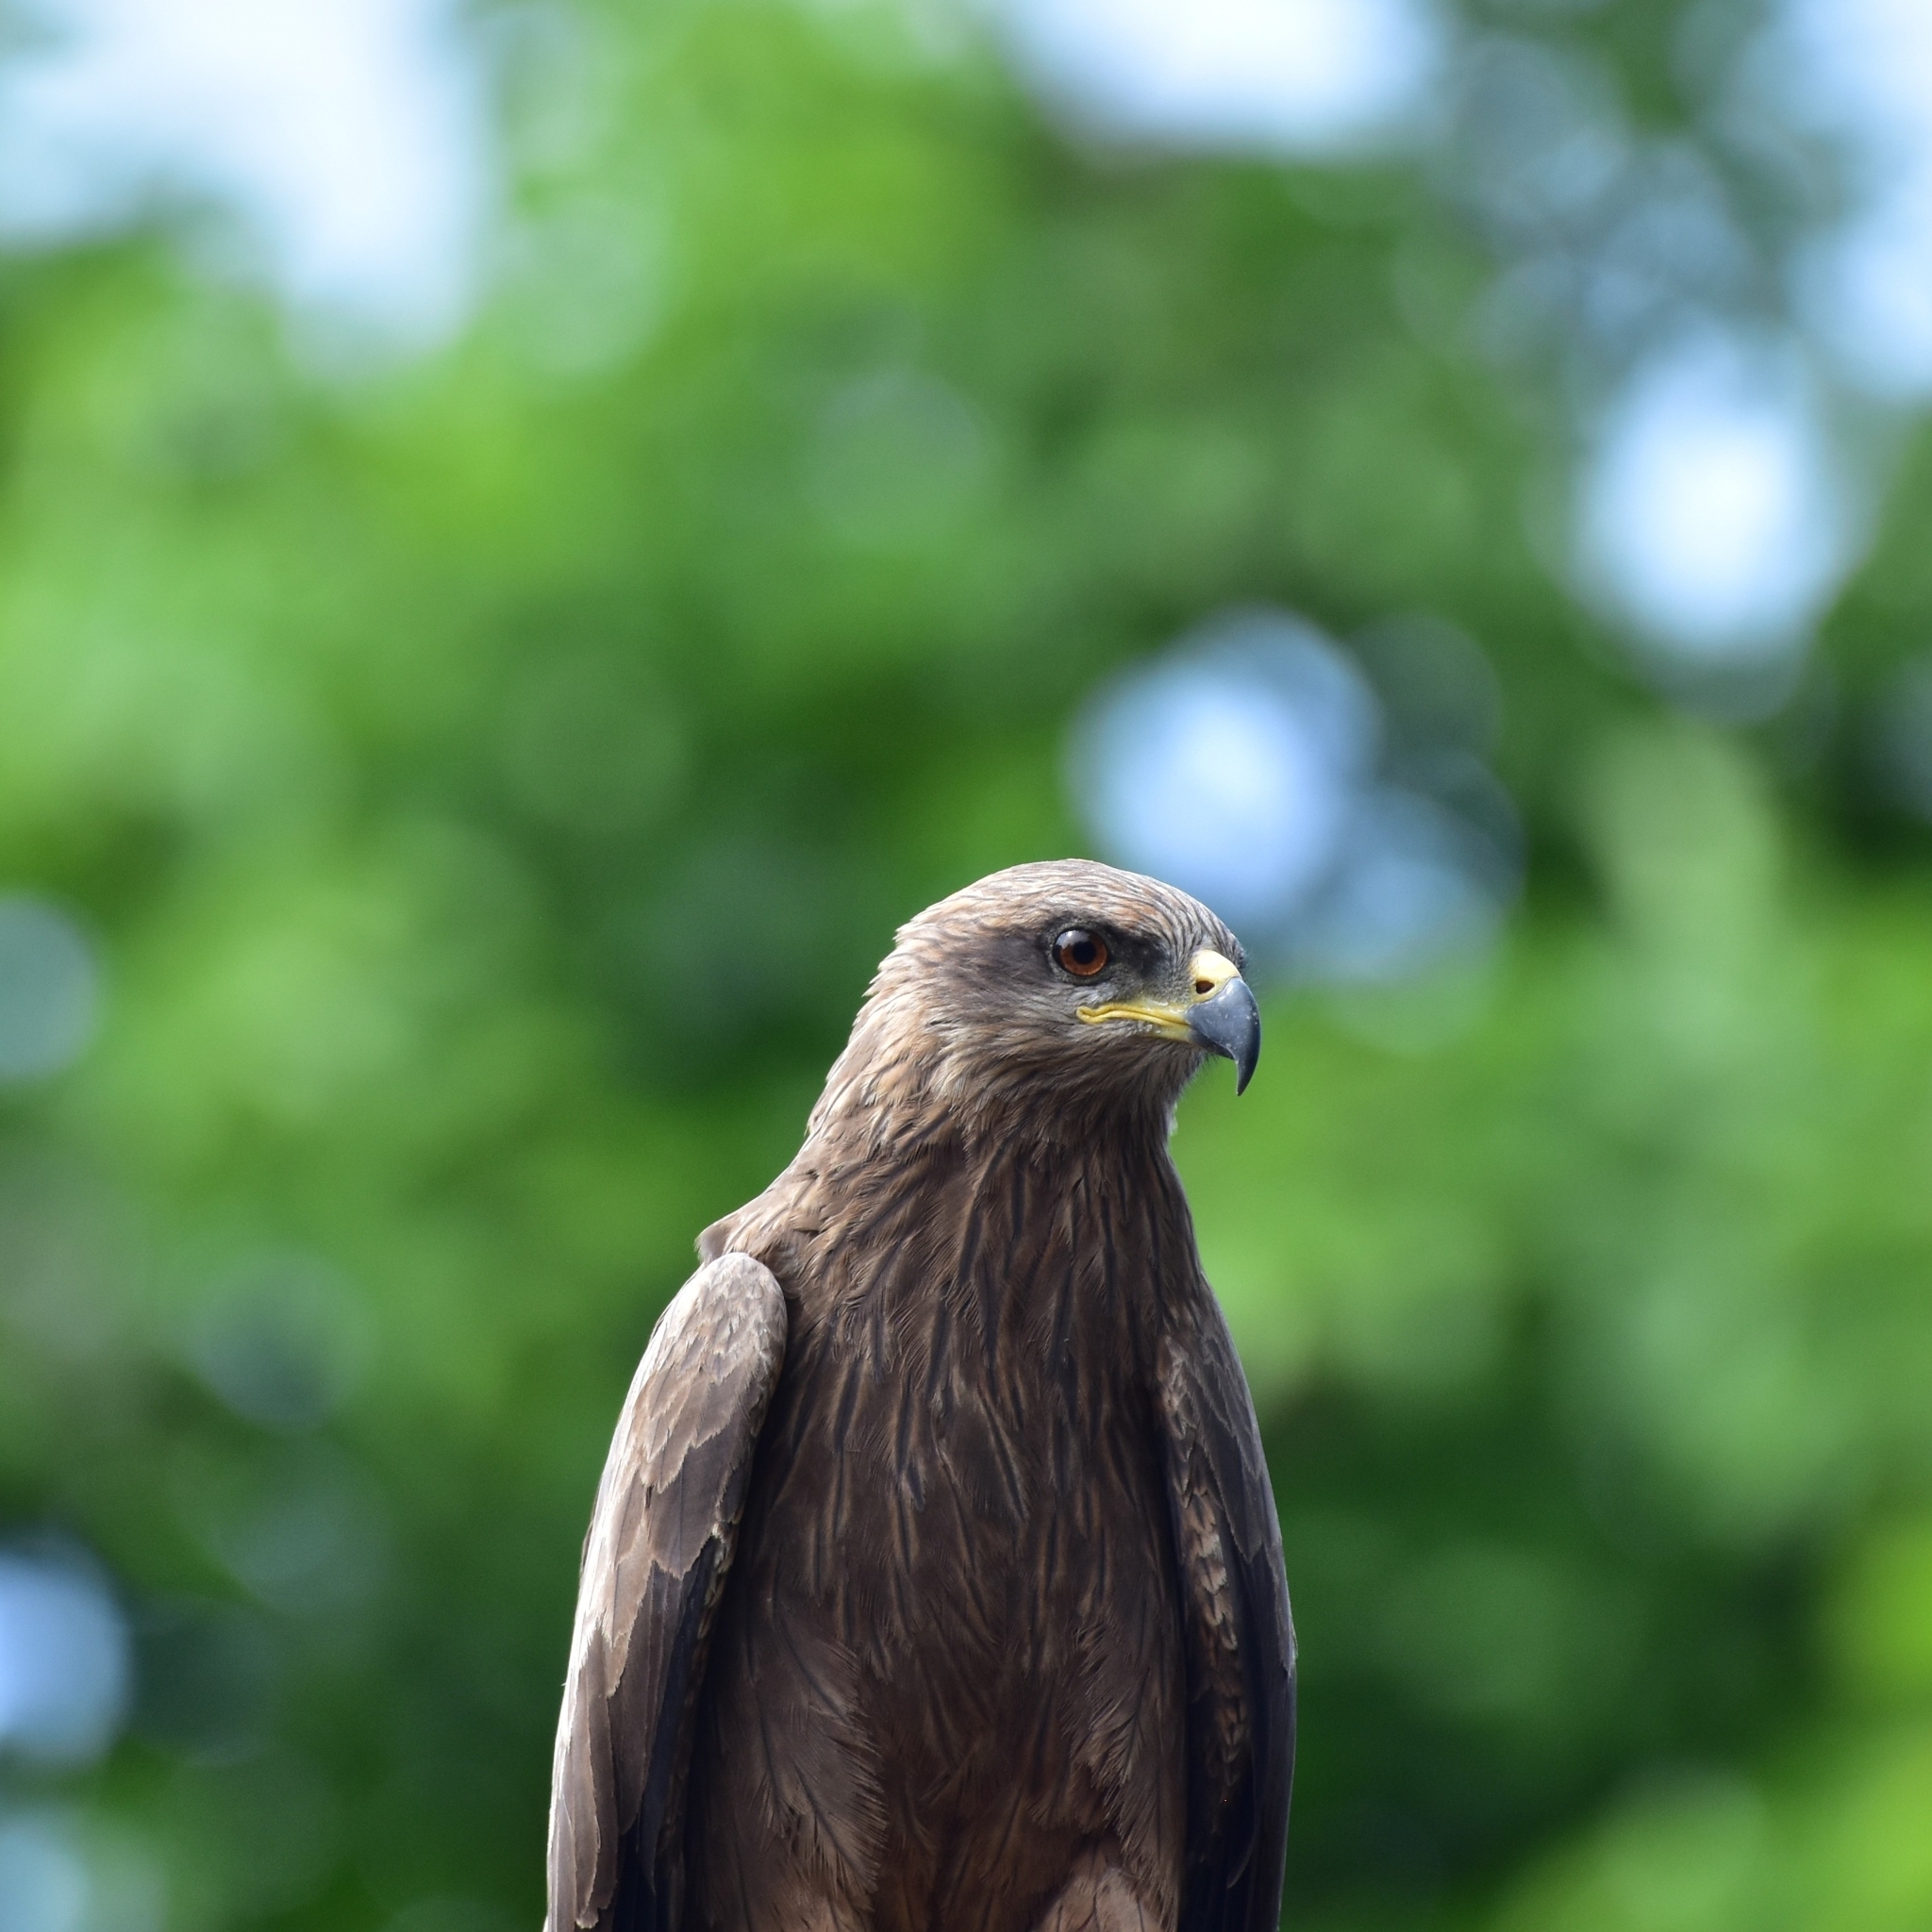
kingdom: Animalia
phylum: Chordata
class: Aves
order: Accipitriformes
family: Accipitridae
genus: Milvus
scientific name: Milvus migrans
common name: Black kite
